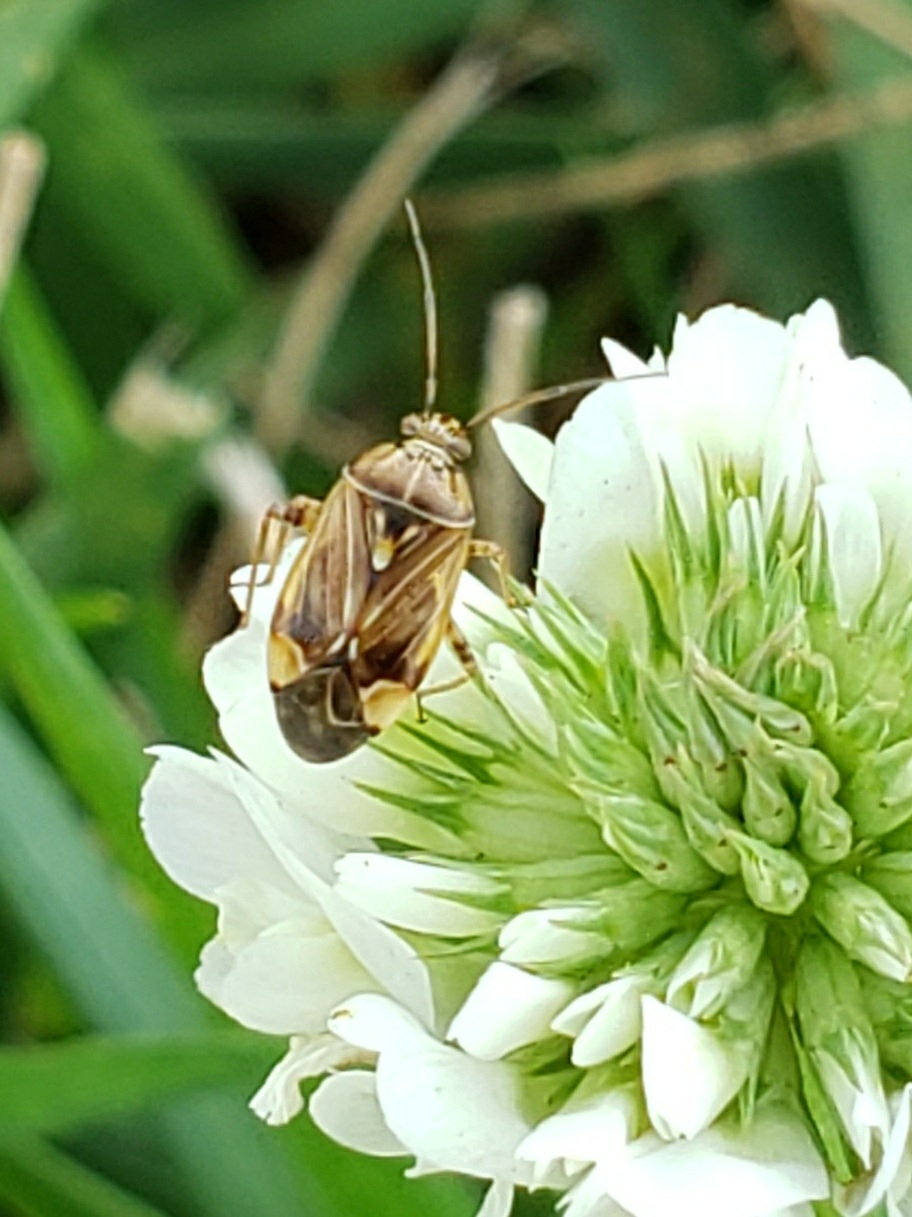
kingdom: Animalia
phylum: Arthropoda
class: Insecta
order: Hemiptera
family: Miridae
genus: Lygus
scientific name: Lygus lineolaris
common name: North american tarnished plant bug
